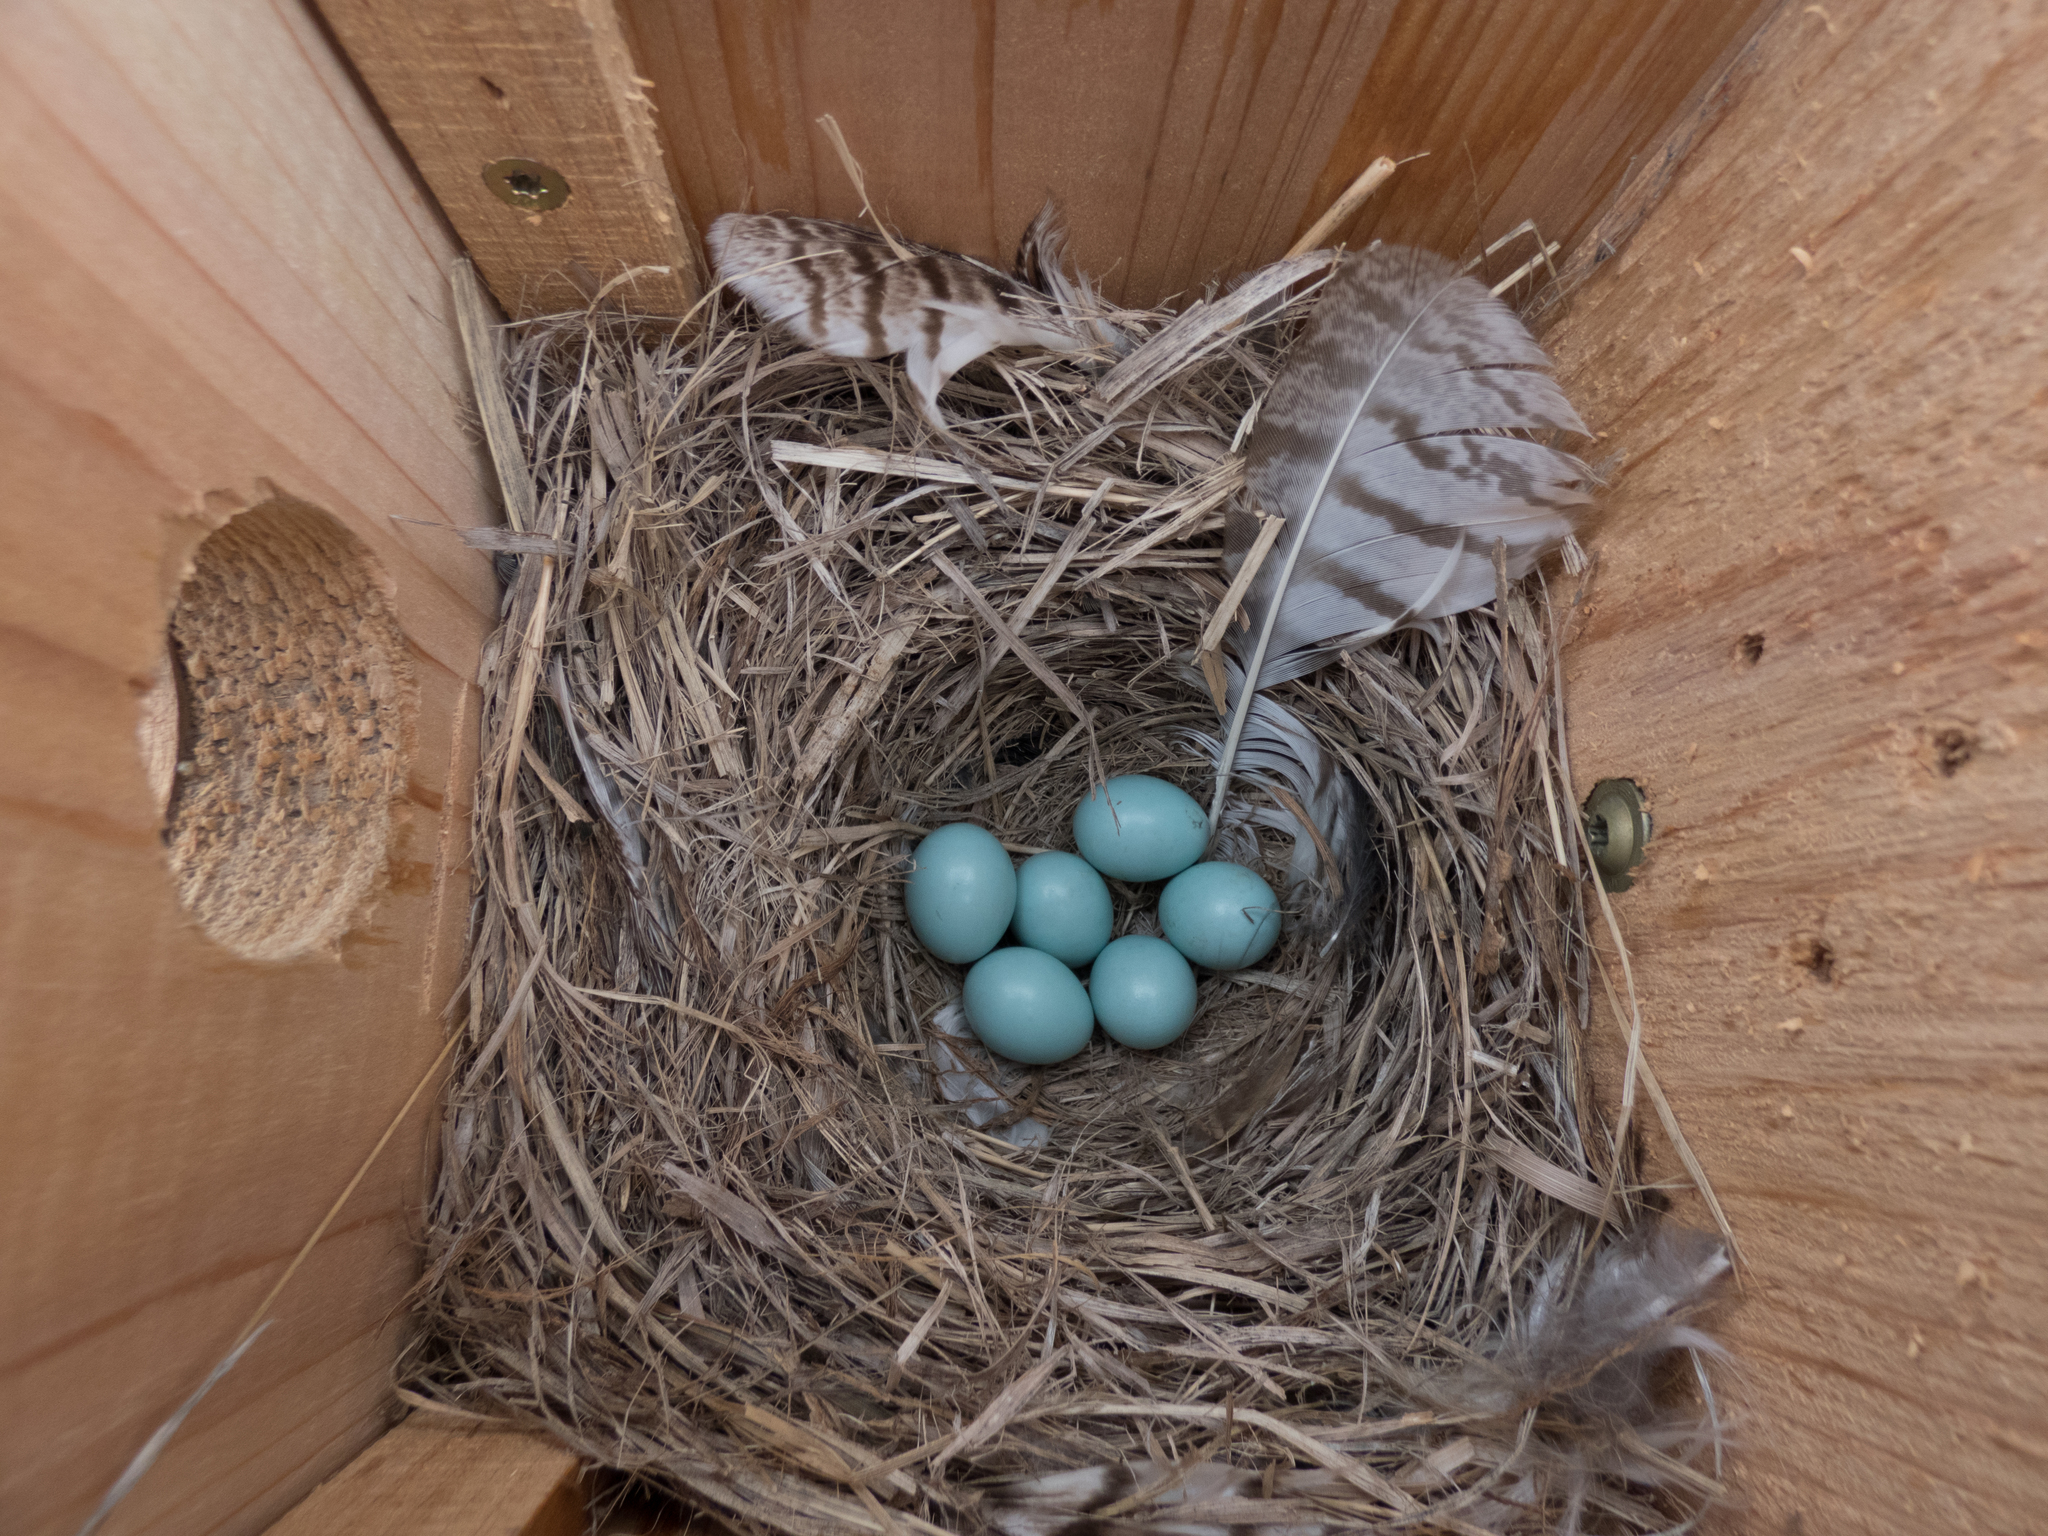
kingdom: Animalia
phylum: Chordata
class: Aves
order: Passeriformes
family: Turdidae
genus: Sialia
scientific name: Sialia currucoides
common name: Mountain bluebird
